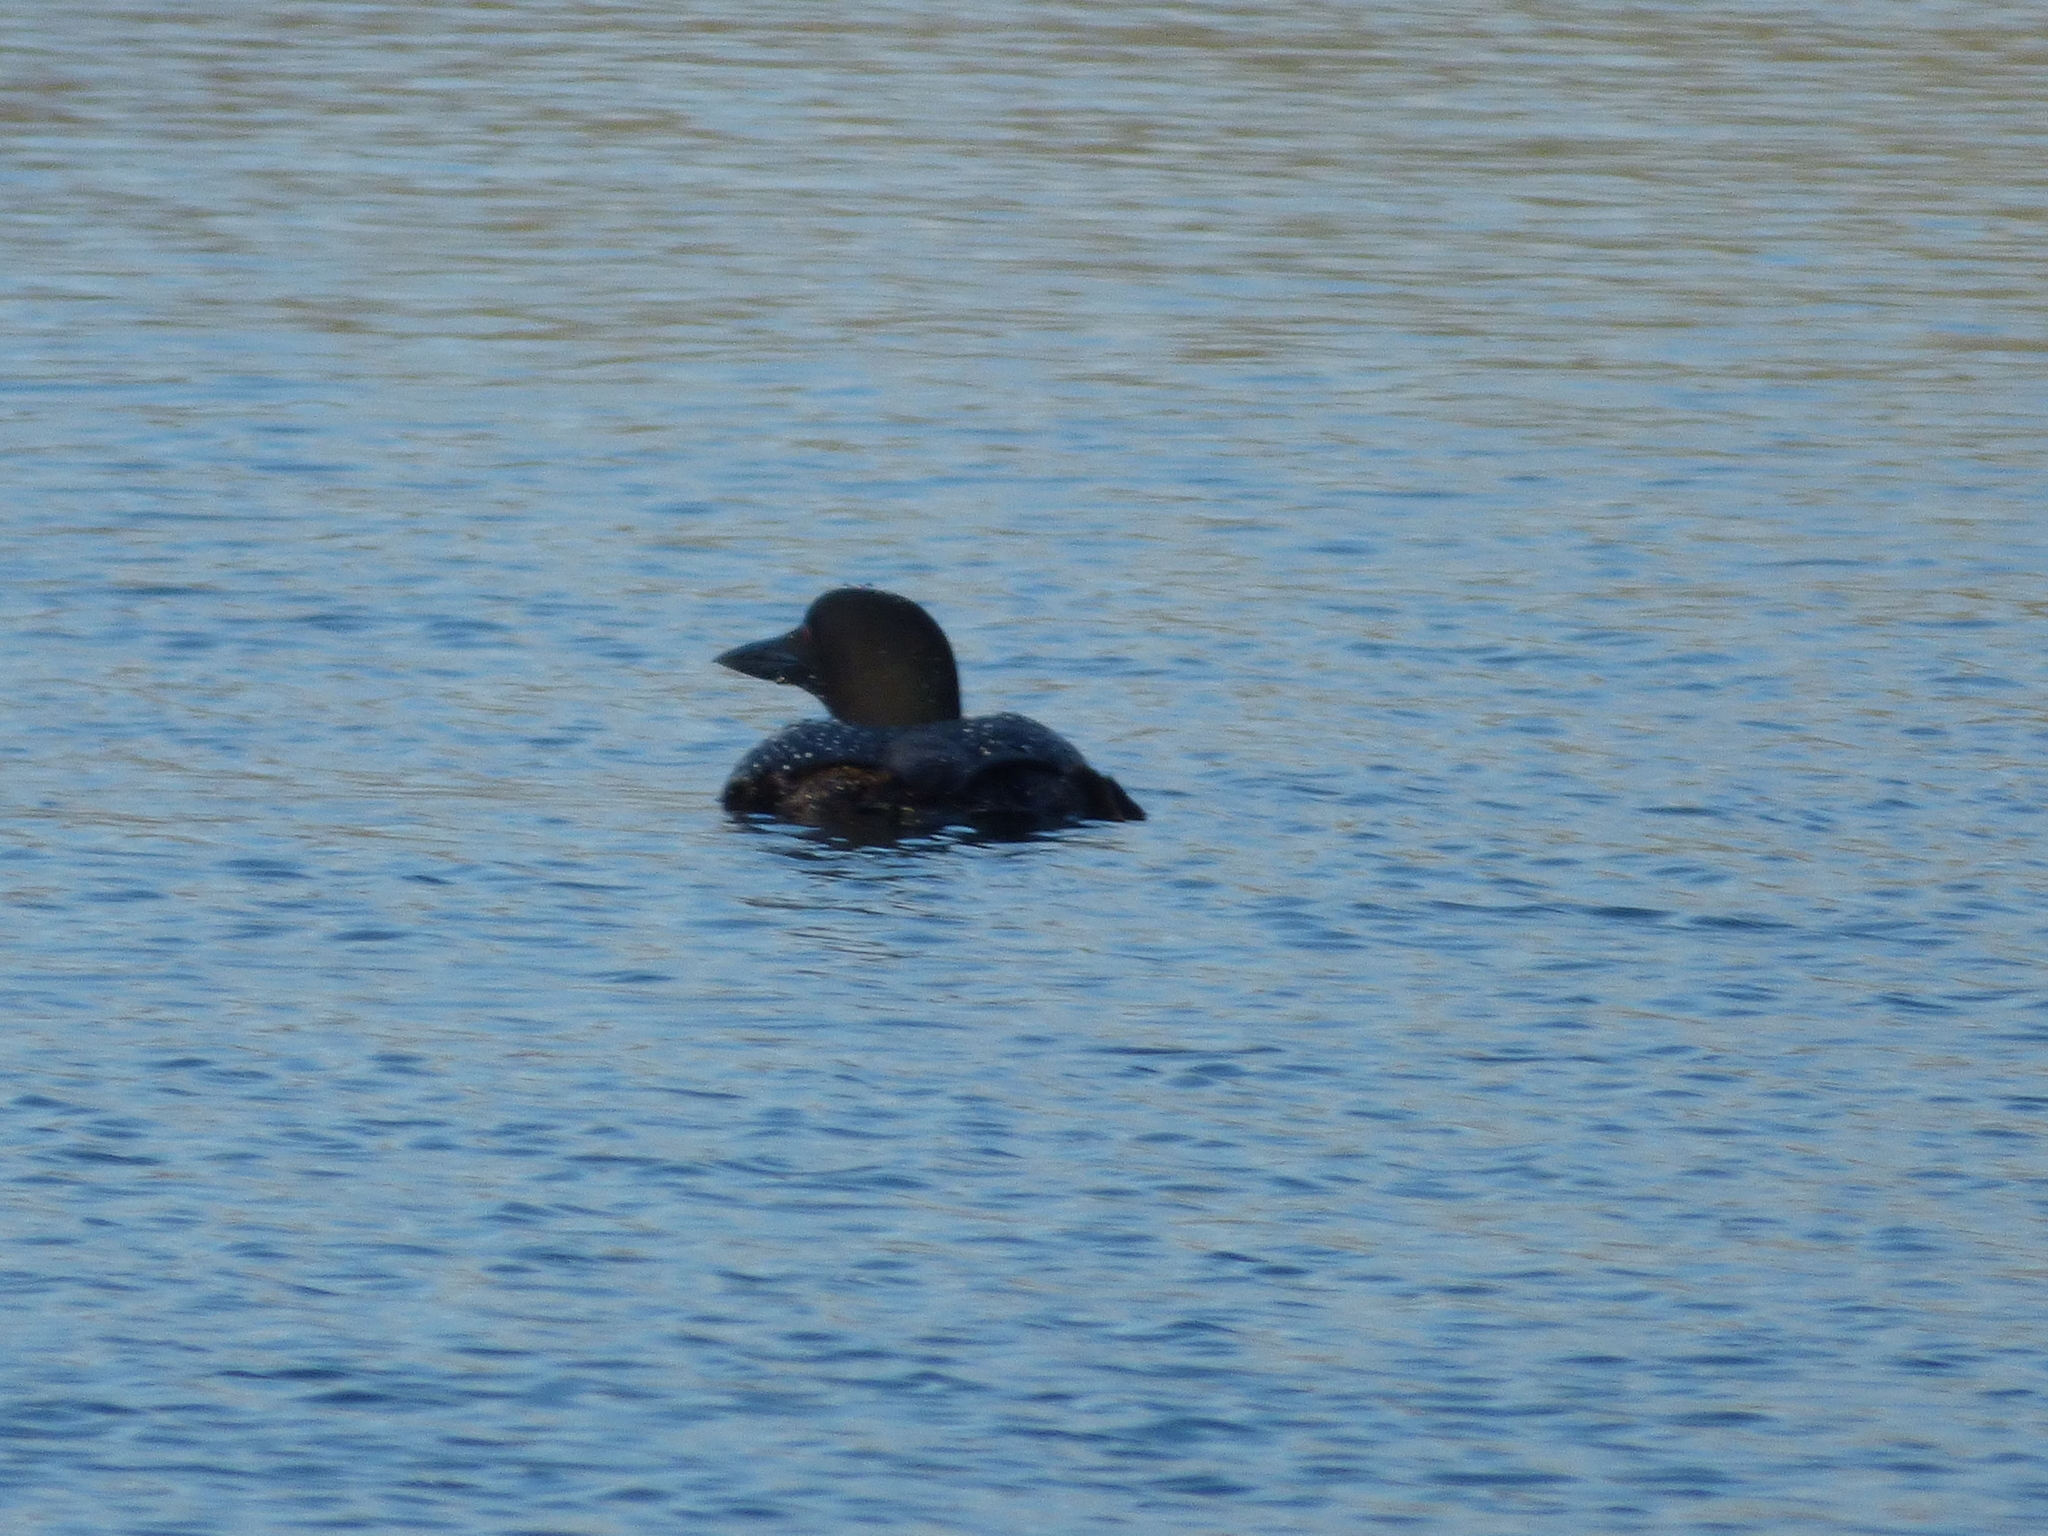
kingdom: Animalia
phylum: Chordata
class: Aves
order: Gaviiformes
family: Gaviidae
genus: Gavia
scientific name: Gavia immer
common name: Common loon
